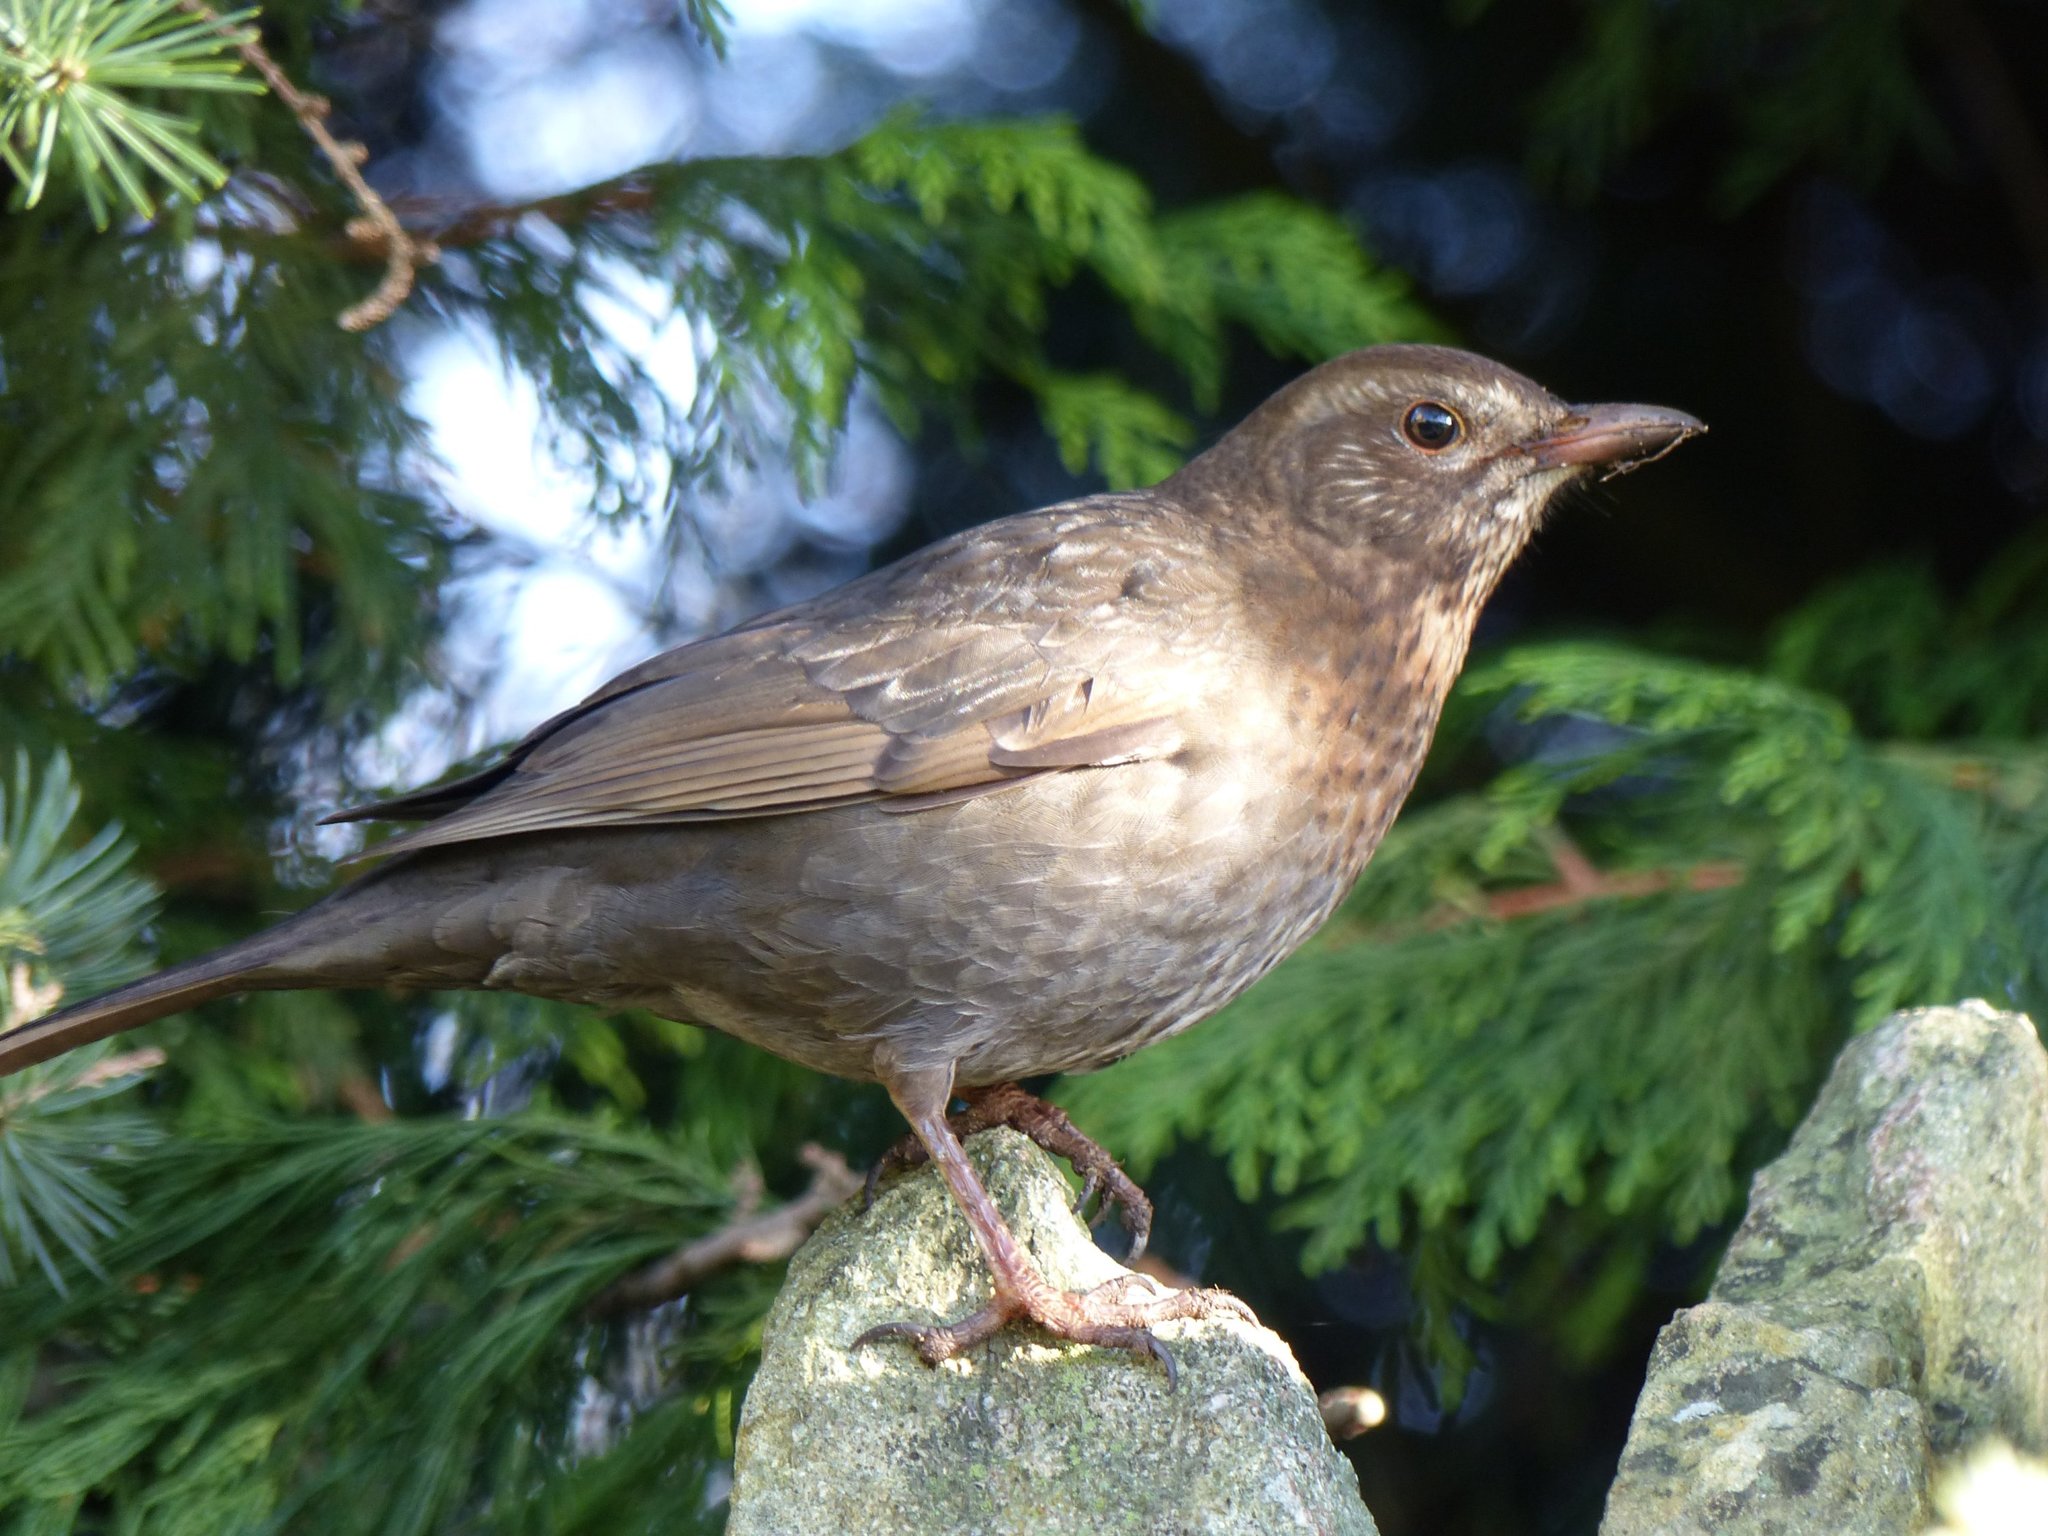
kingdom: Animalia
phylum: Chordata
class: Aves
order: Passeriformes
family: Turdidae
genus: Turdus
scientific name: Turdus merula
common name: Common blackbird
